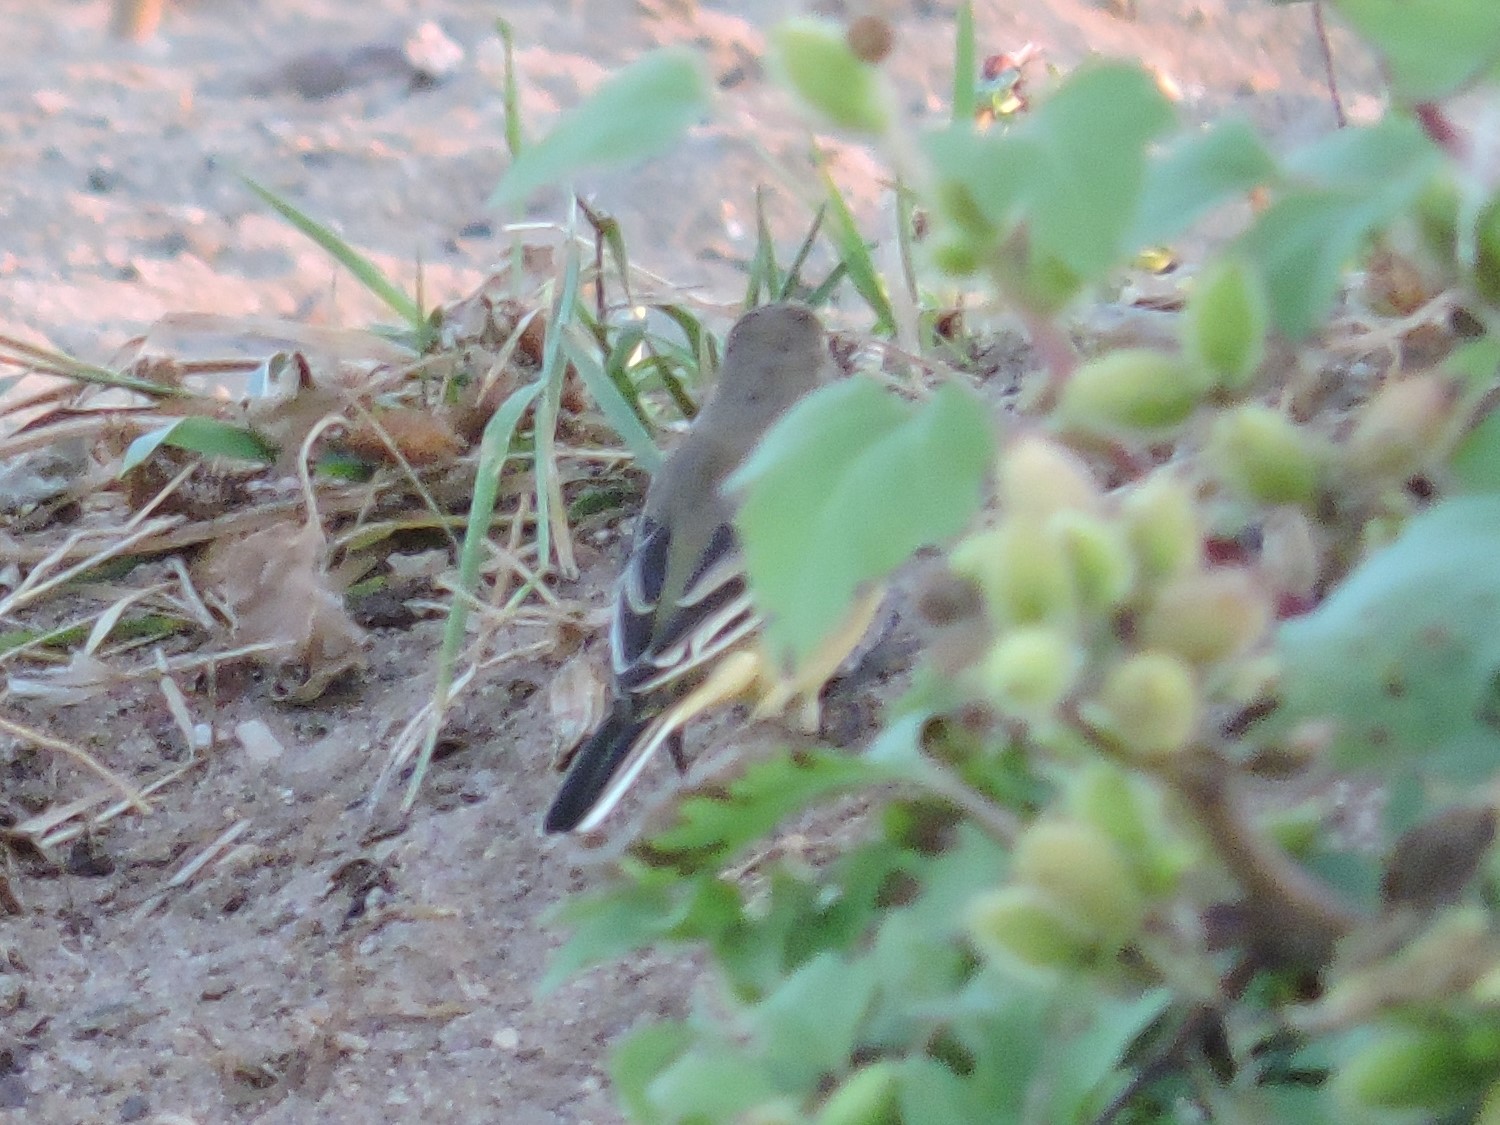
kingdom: Animalia
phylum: Chordata
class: Aves
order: Passeriformes
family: Motacillidae
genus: Motacilla
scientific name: Motacilla flava
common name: Western yellow wagtail
